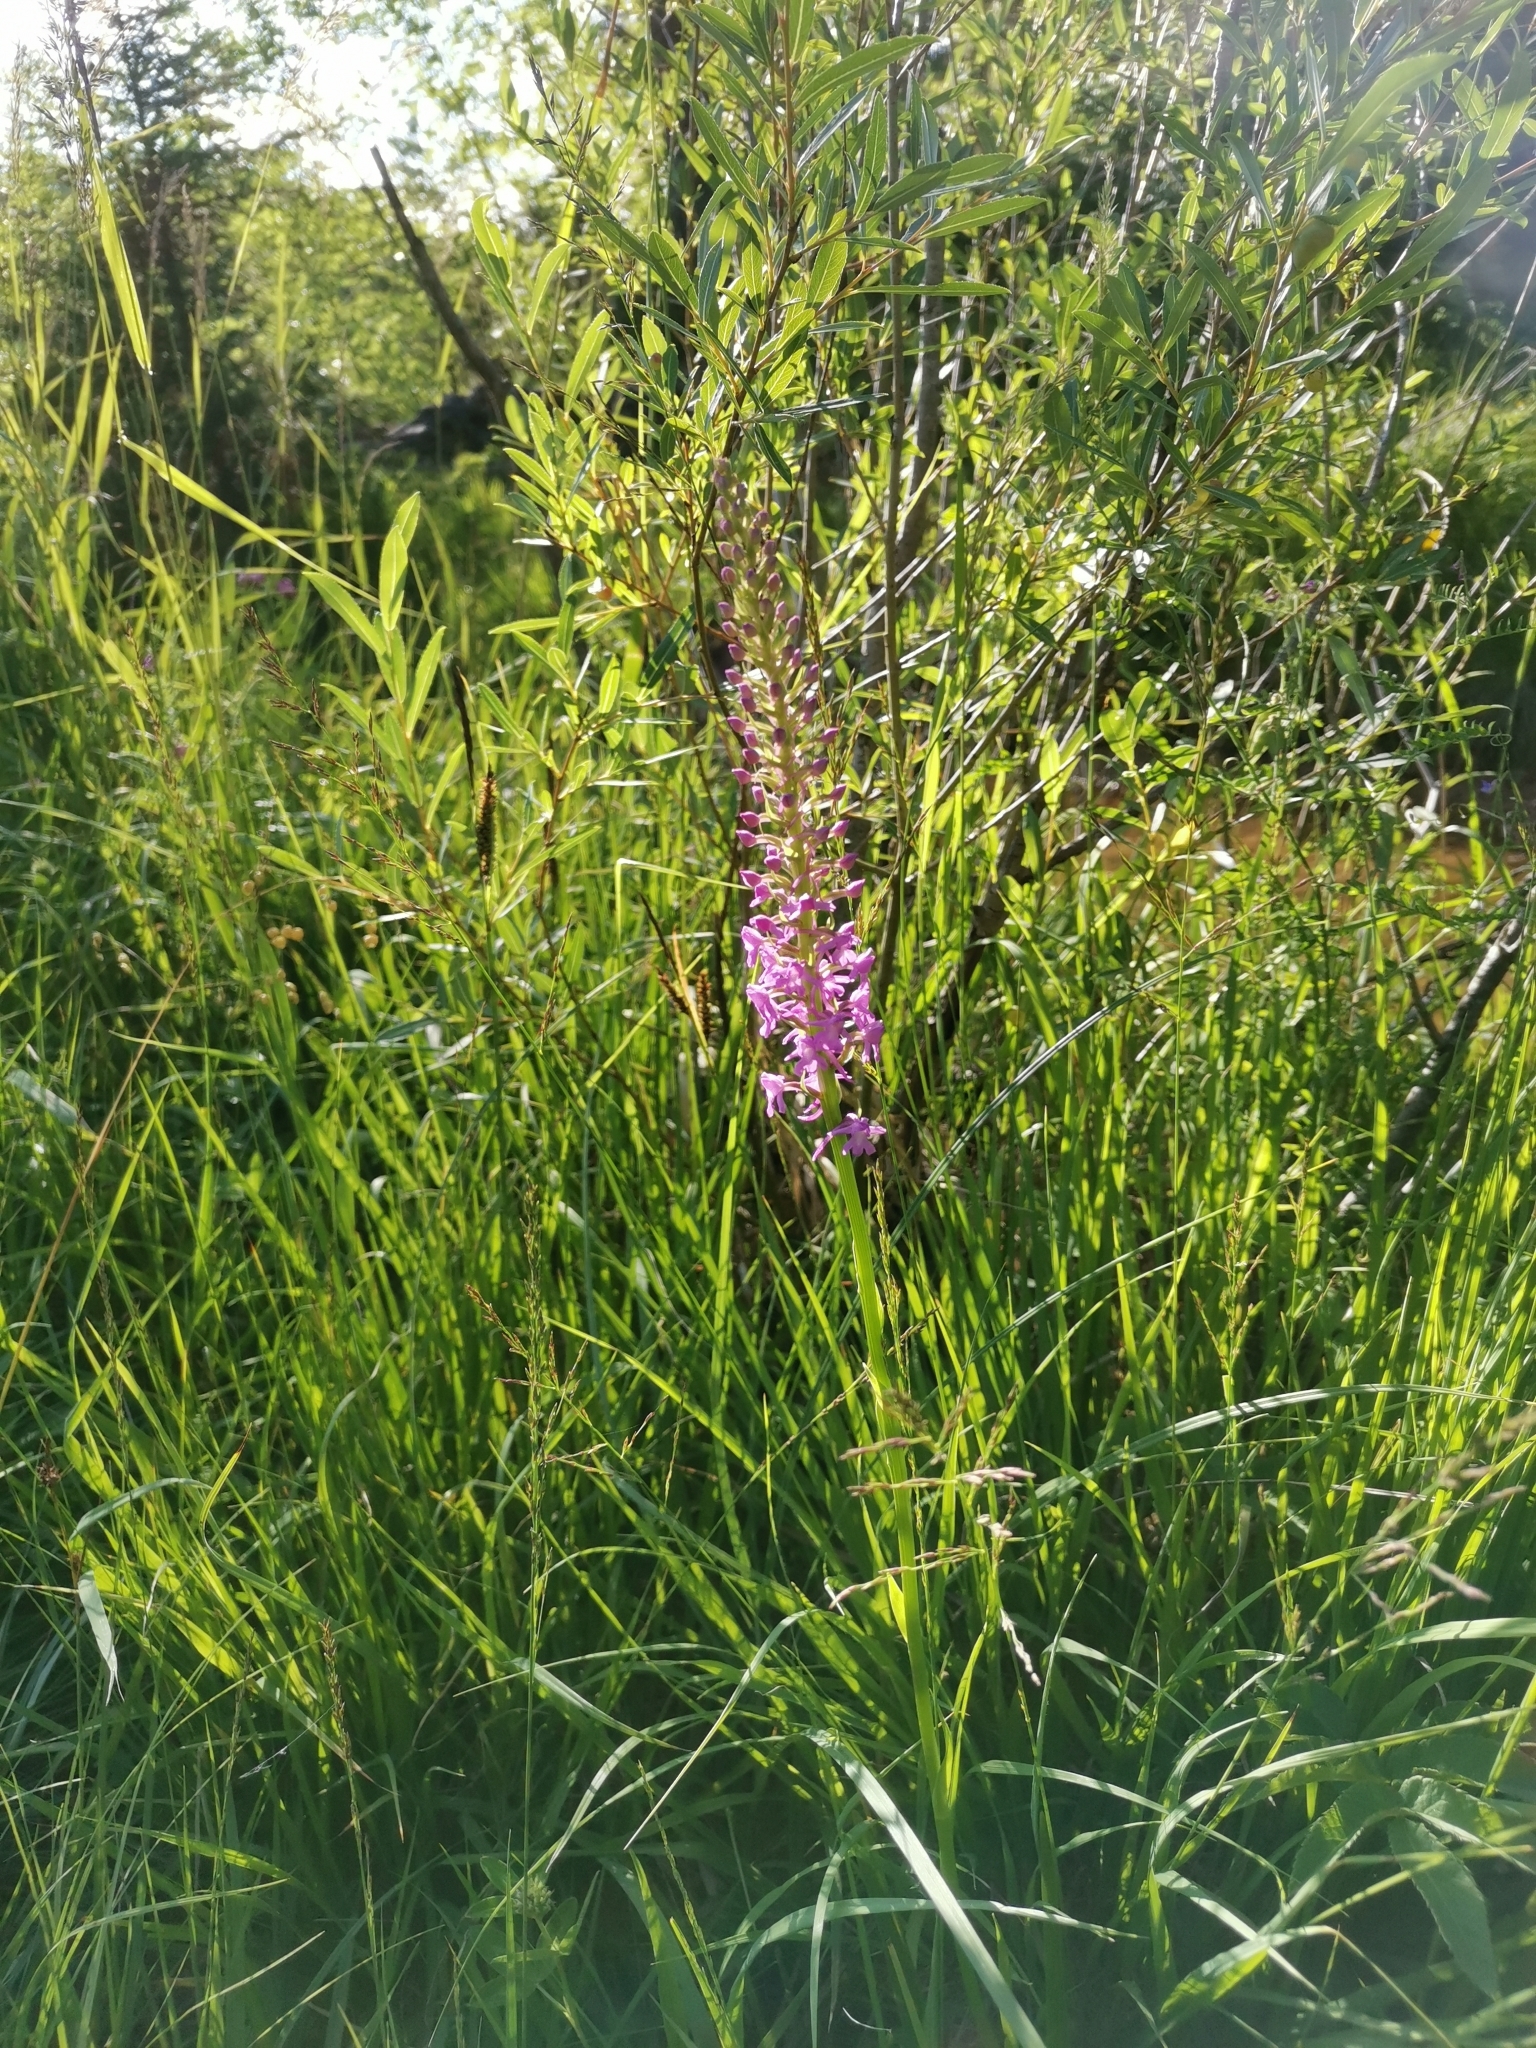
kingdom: Plantae
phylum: Tracheophyta
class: Liliopsida
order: Asparagales
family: Orchidaceae
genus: Gymnadenia
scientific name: Gymnadenia densiflora
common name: Marsh fragrant-orchid
